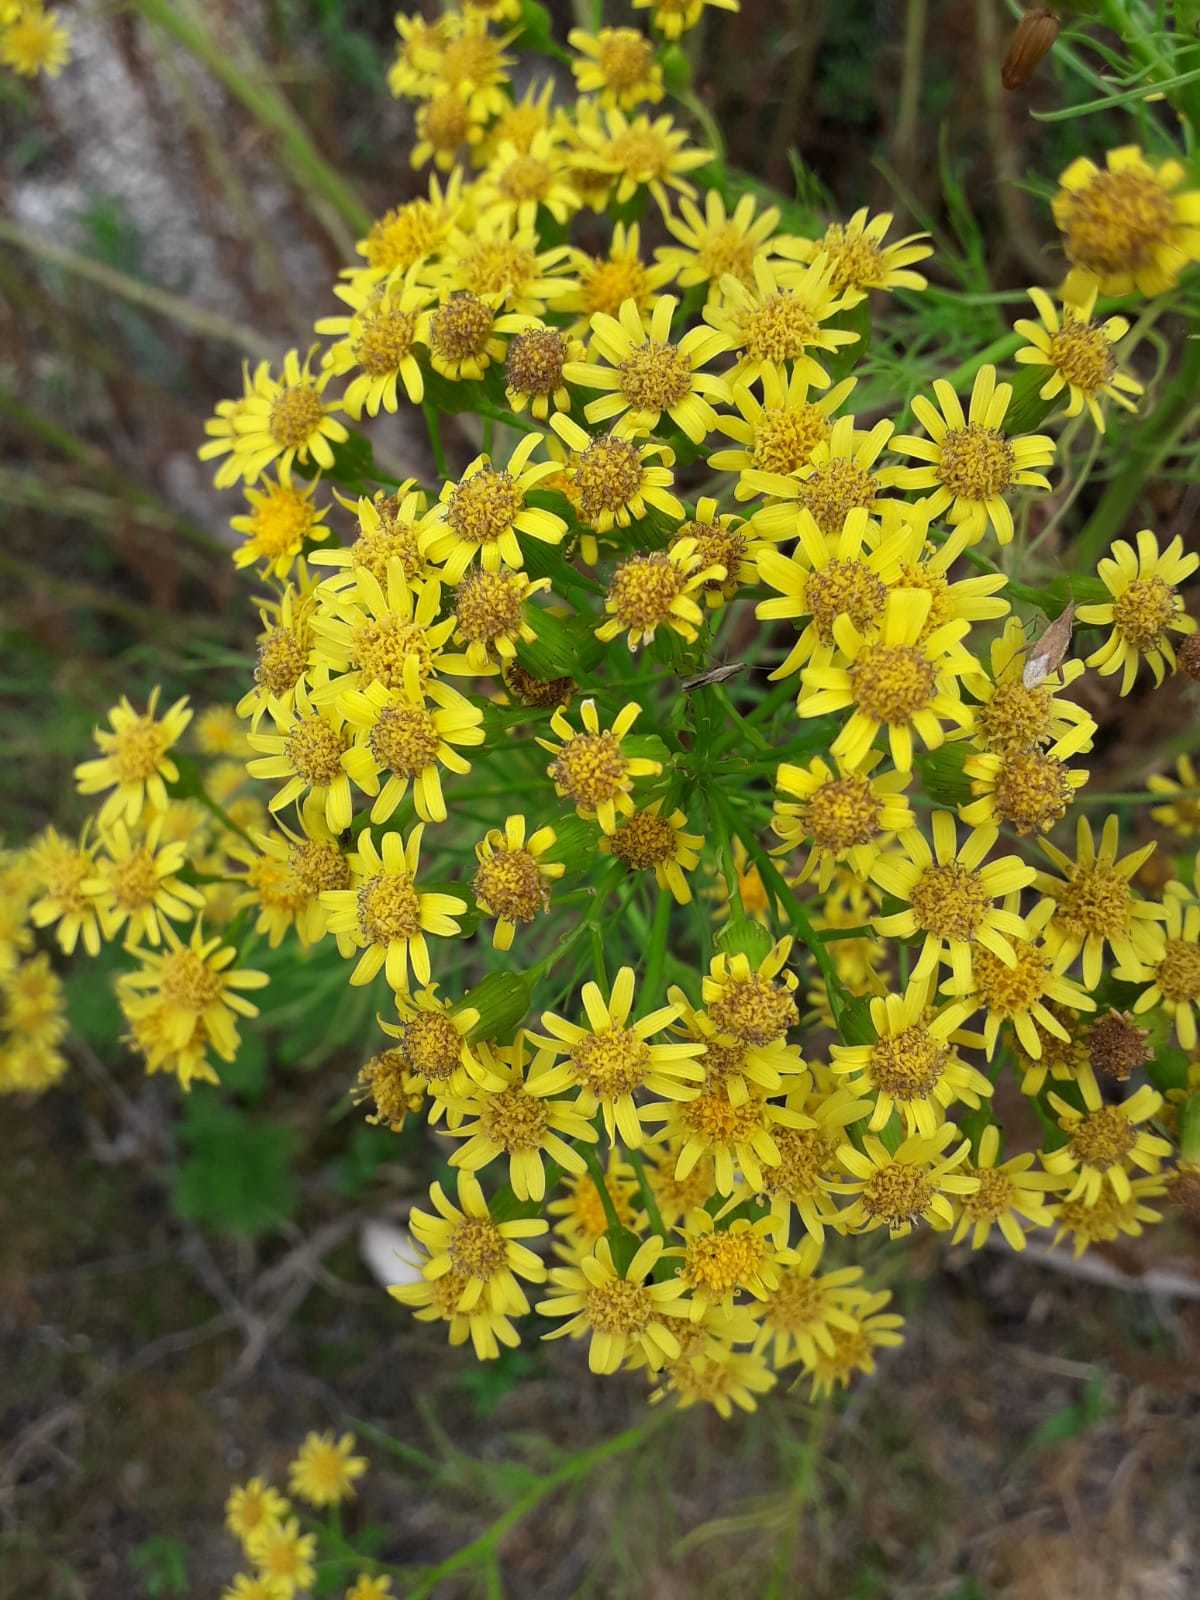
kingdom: Plantae
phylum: Tracheophyta
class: Magnoliopsida
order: Asterales
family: Asteraceae
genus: Senecio
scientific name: Senecio pampeanus
